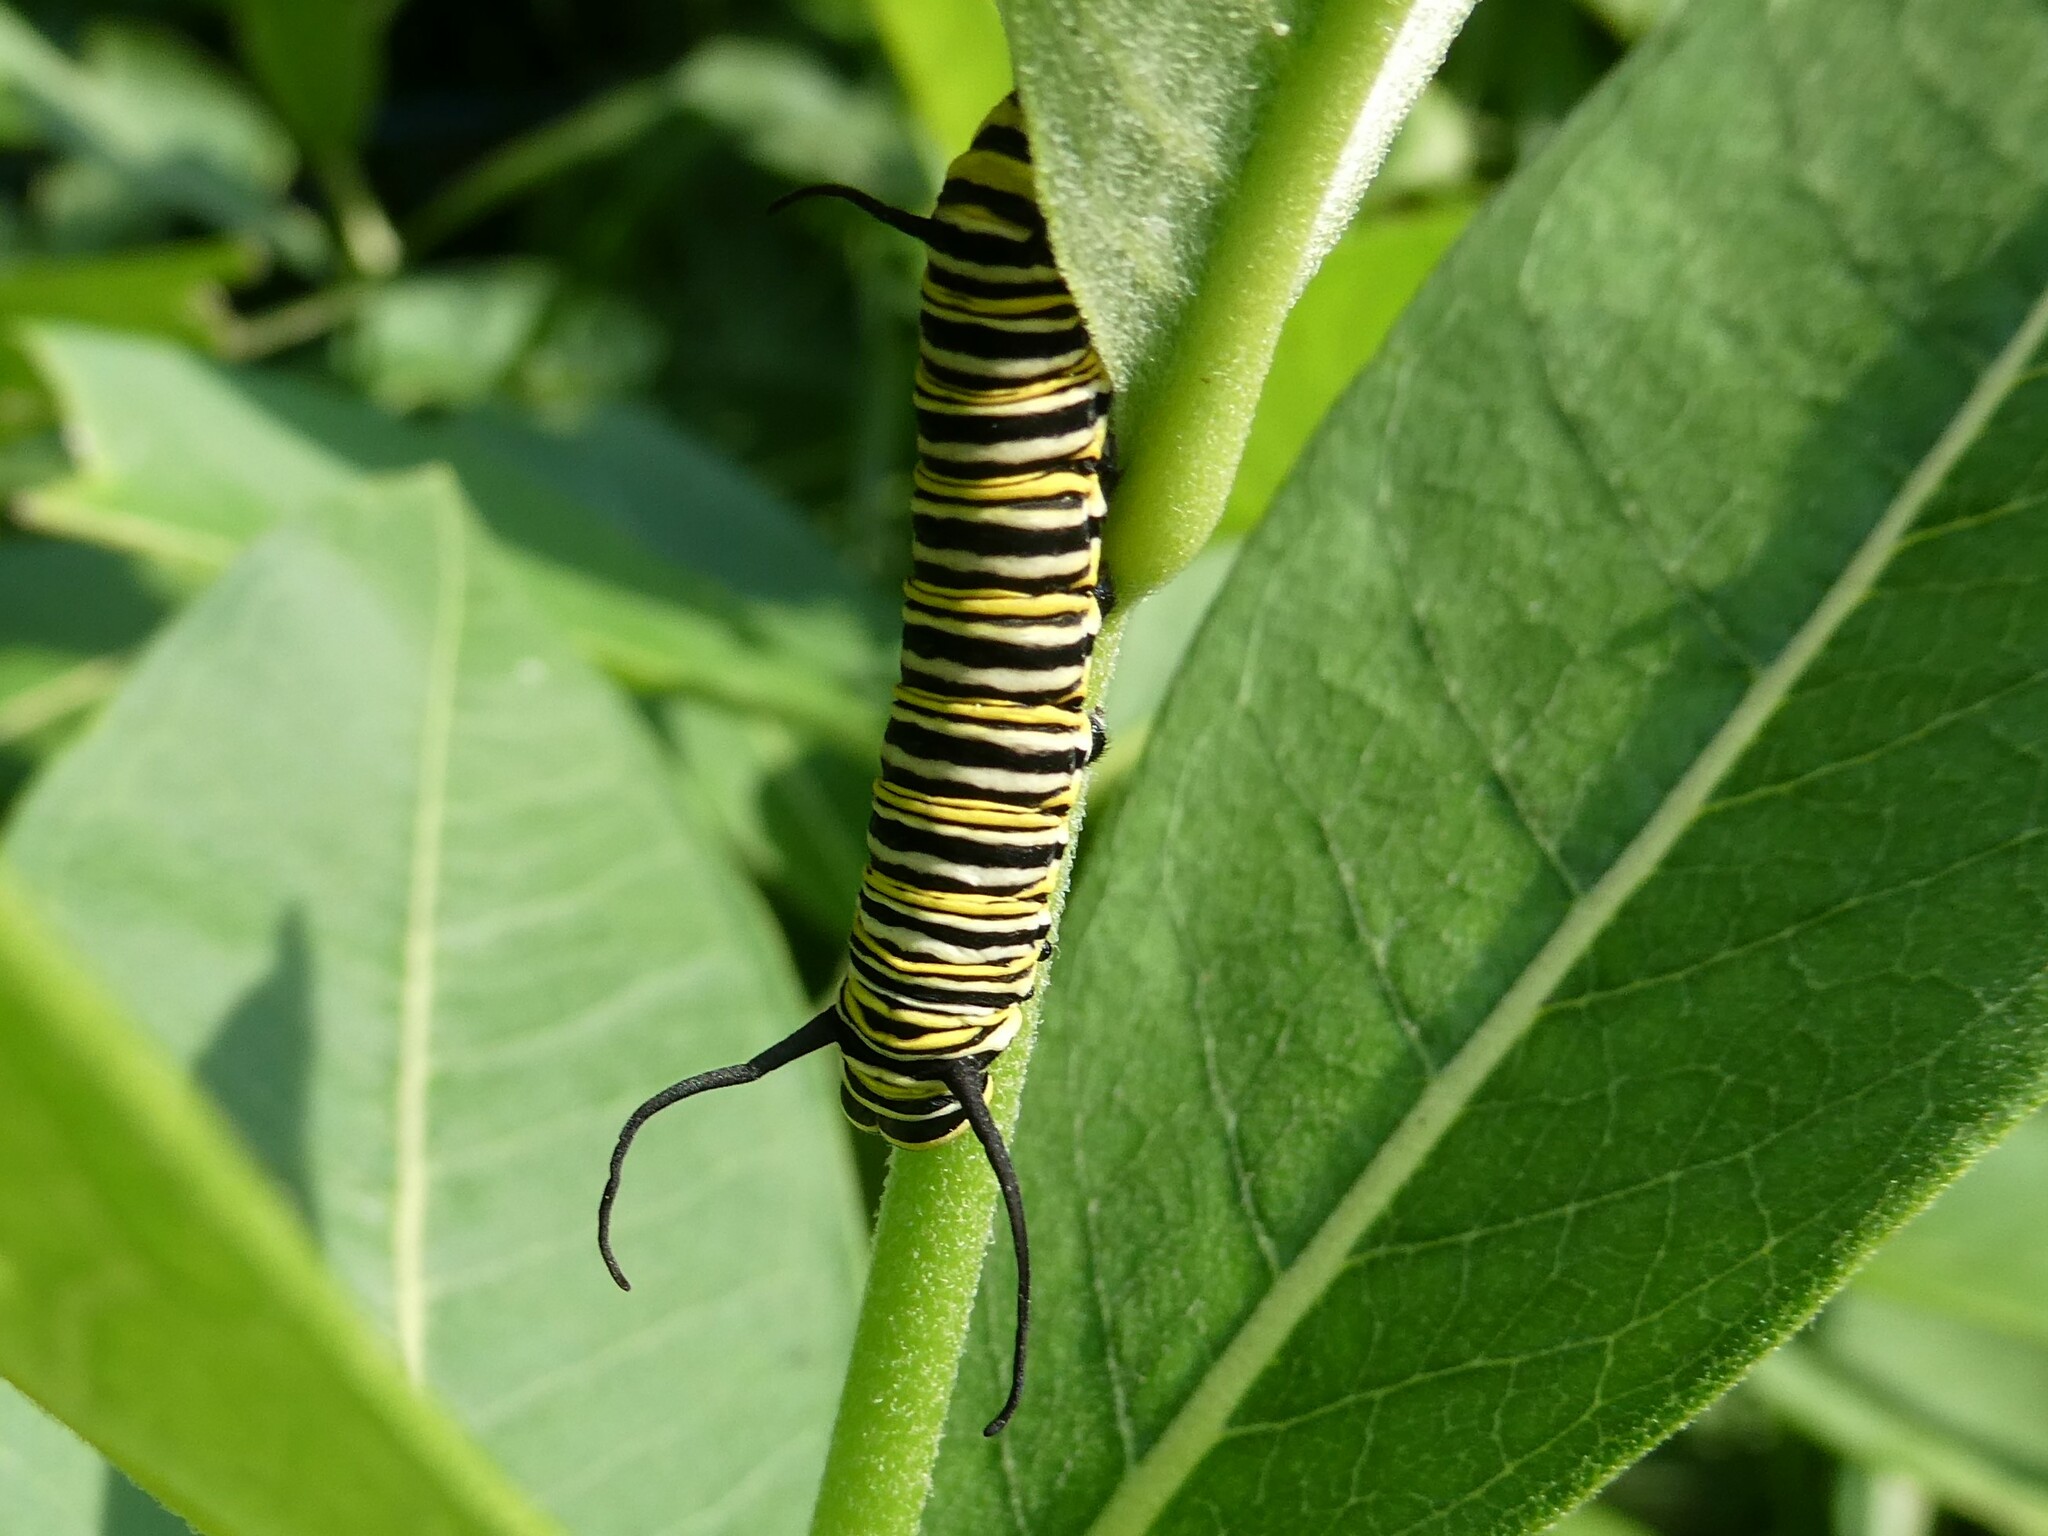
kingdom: Animalia
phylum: Arthropoda
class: Insecta
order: Lepidoptera
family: Nymphalidae
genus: Danaus
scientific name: Danaus plexippus
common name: Monarch
